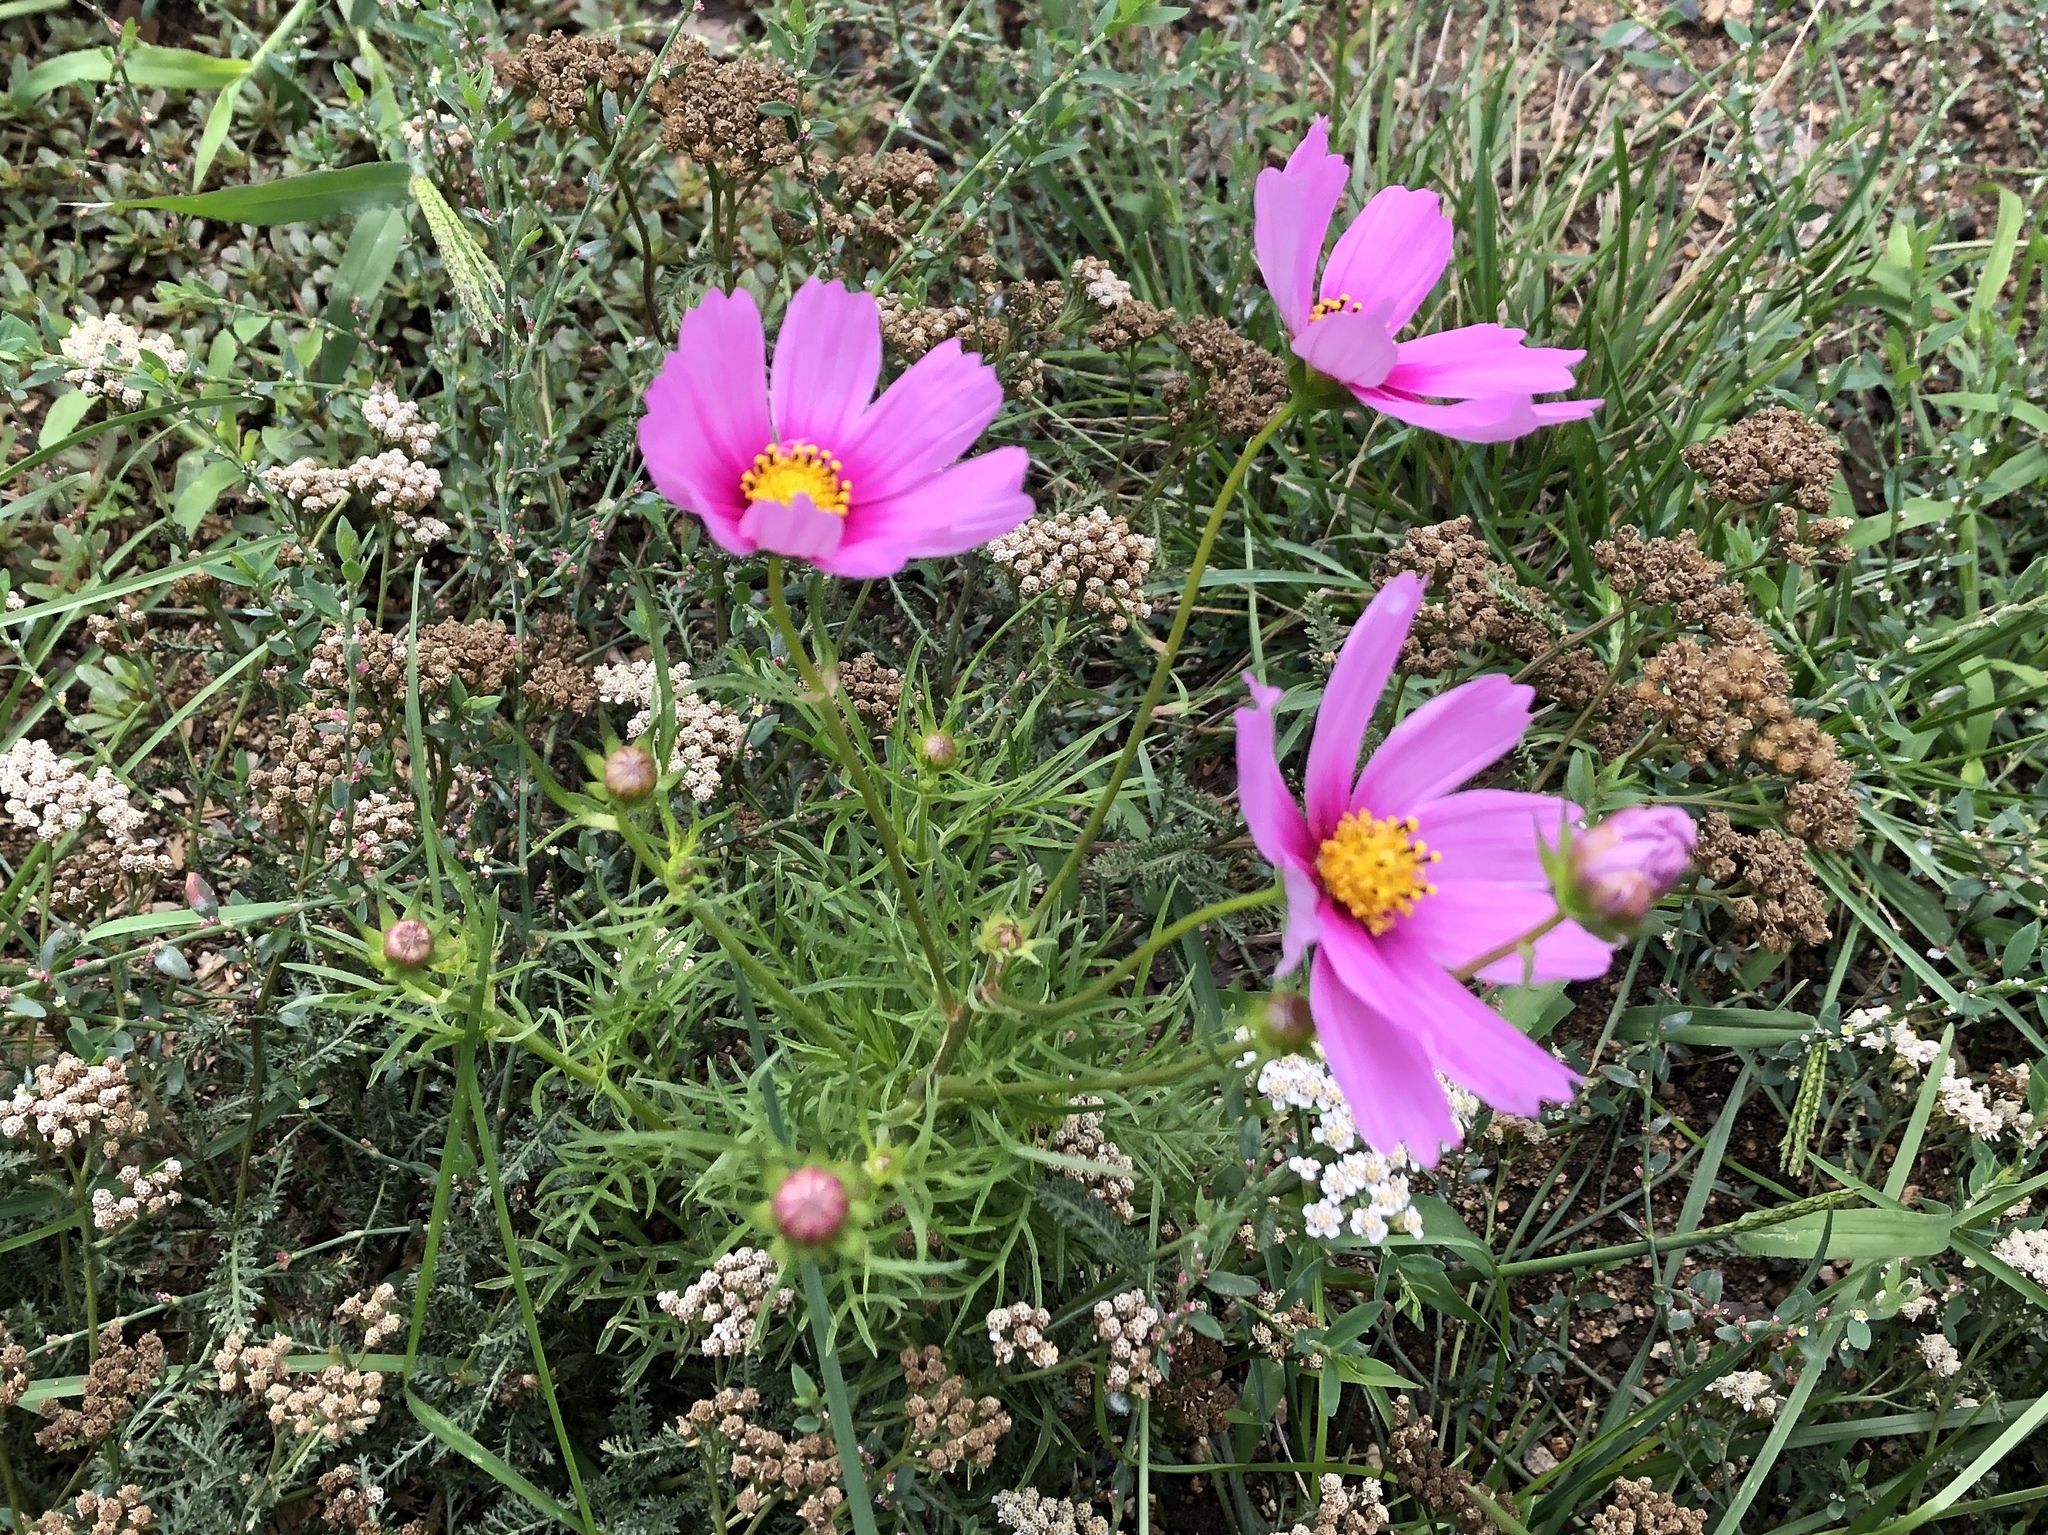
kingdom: Plantae
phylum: Tracheophyta
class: Magnoliopsida
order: Asterales
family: Asteraceae
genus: Cosmos
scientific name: Cosmos bipinnatus
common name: Garden cosmos
